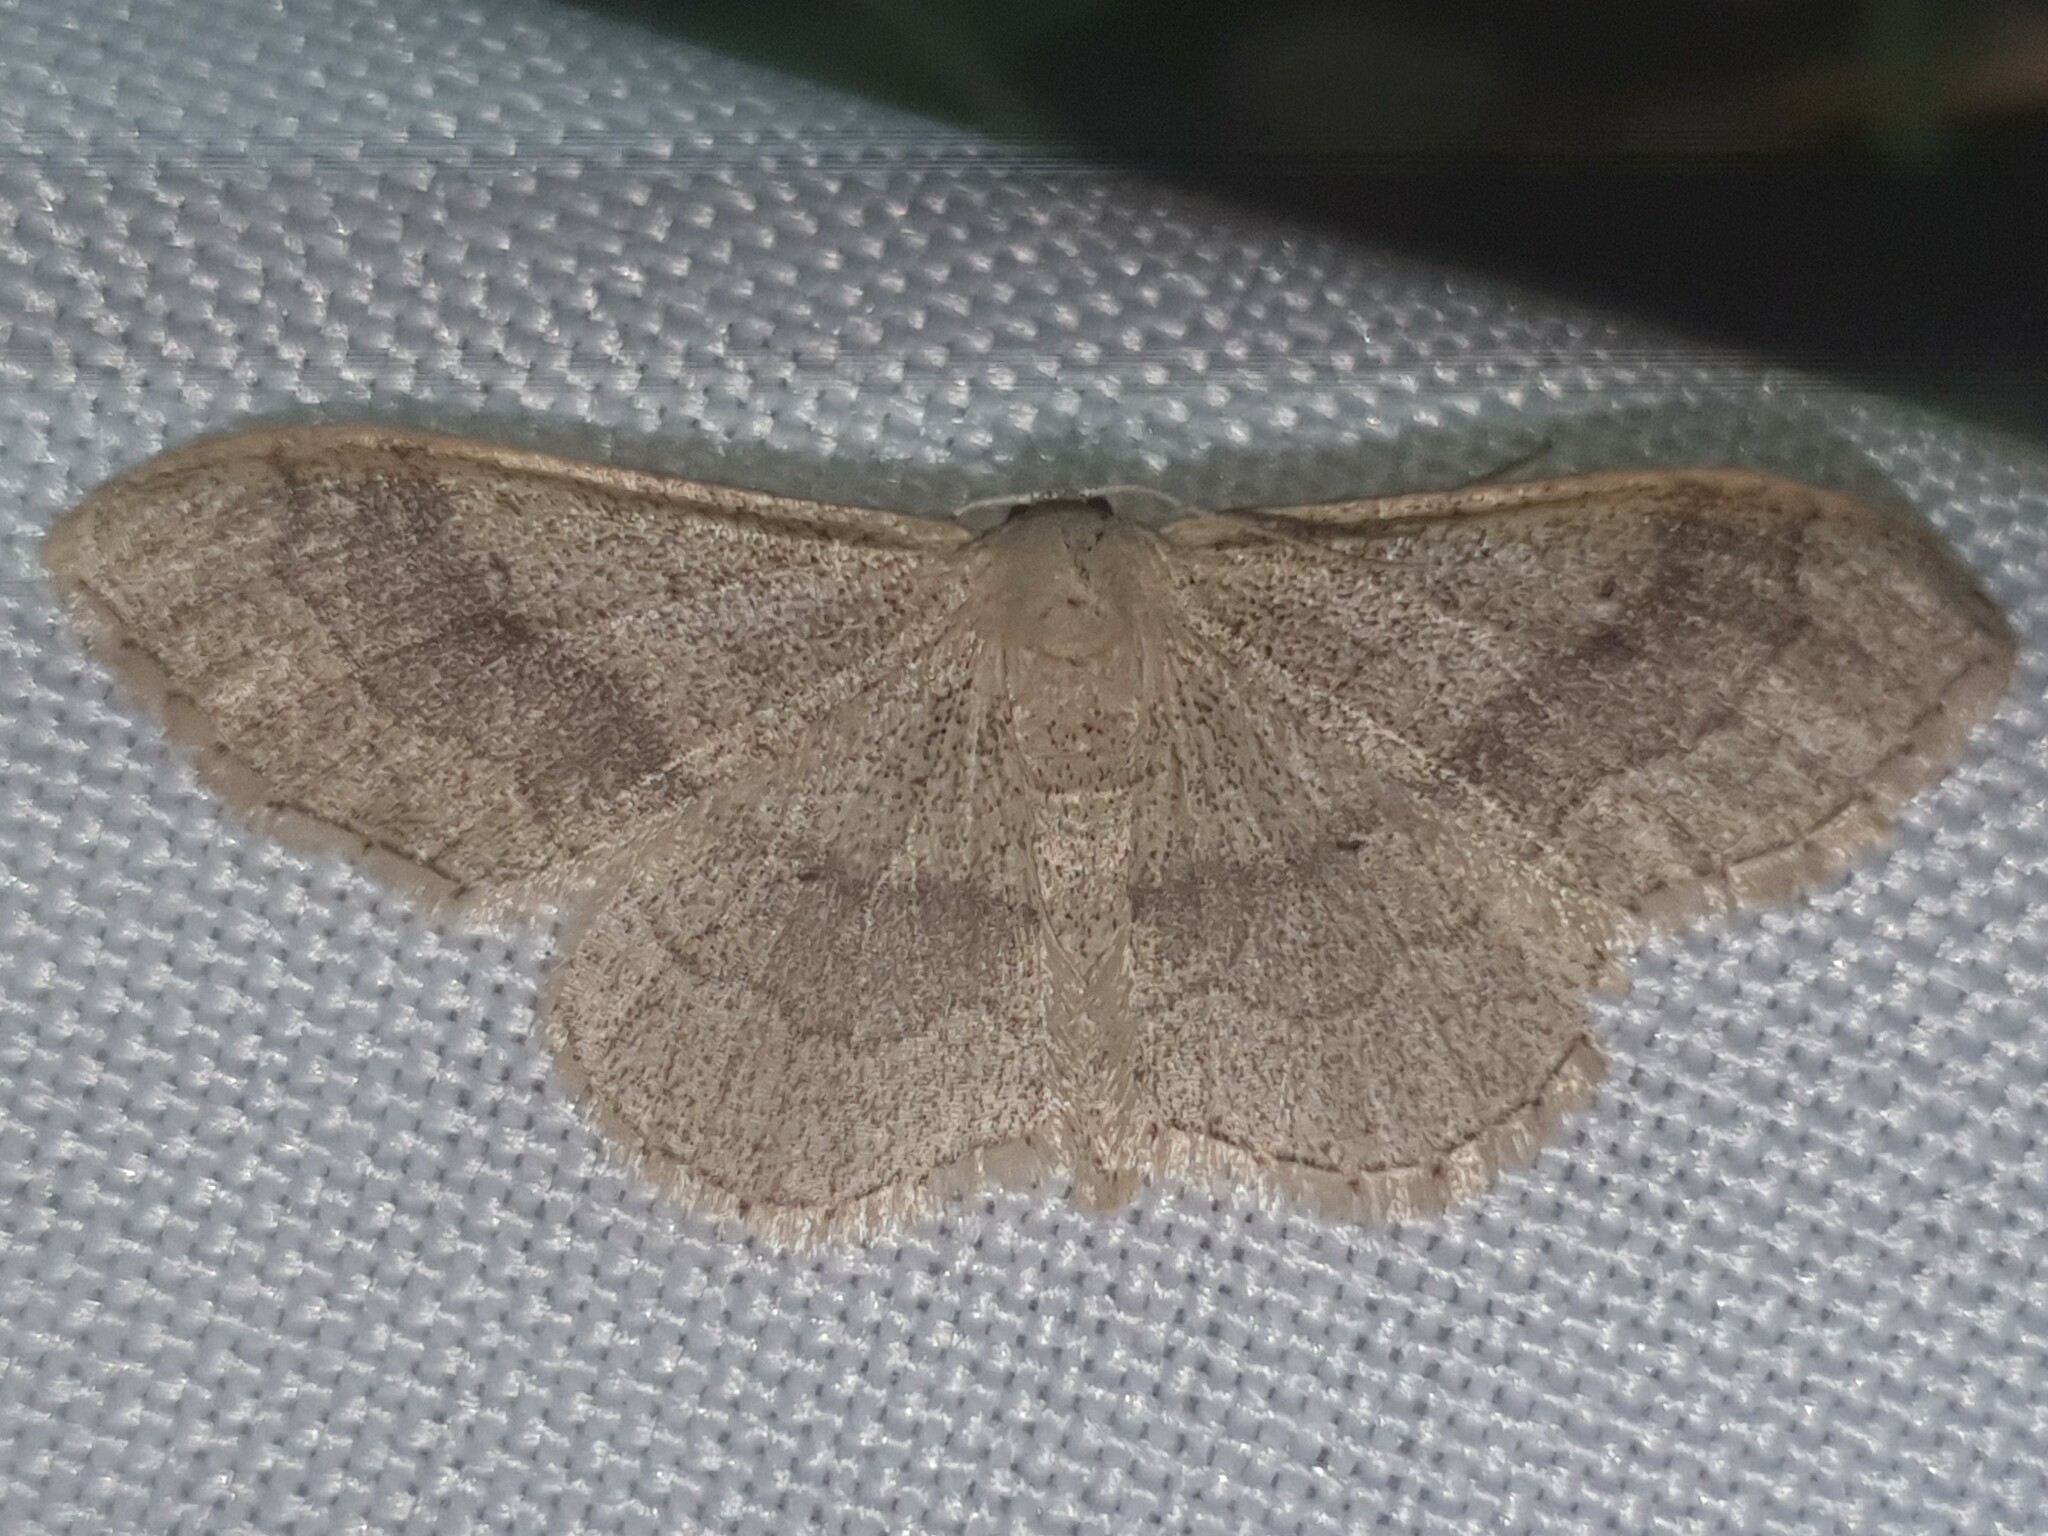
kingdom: Animalia
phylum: Arthropoda
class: Insecta
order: Lepidoptera
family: Geometridae
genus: Idaea
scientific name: Idaea aversata
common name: Riband wave
